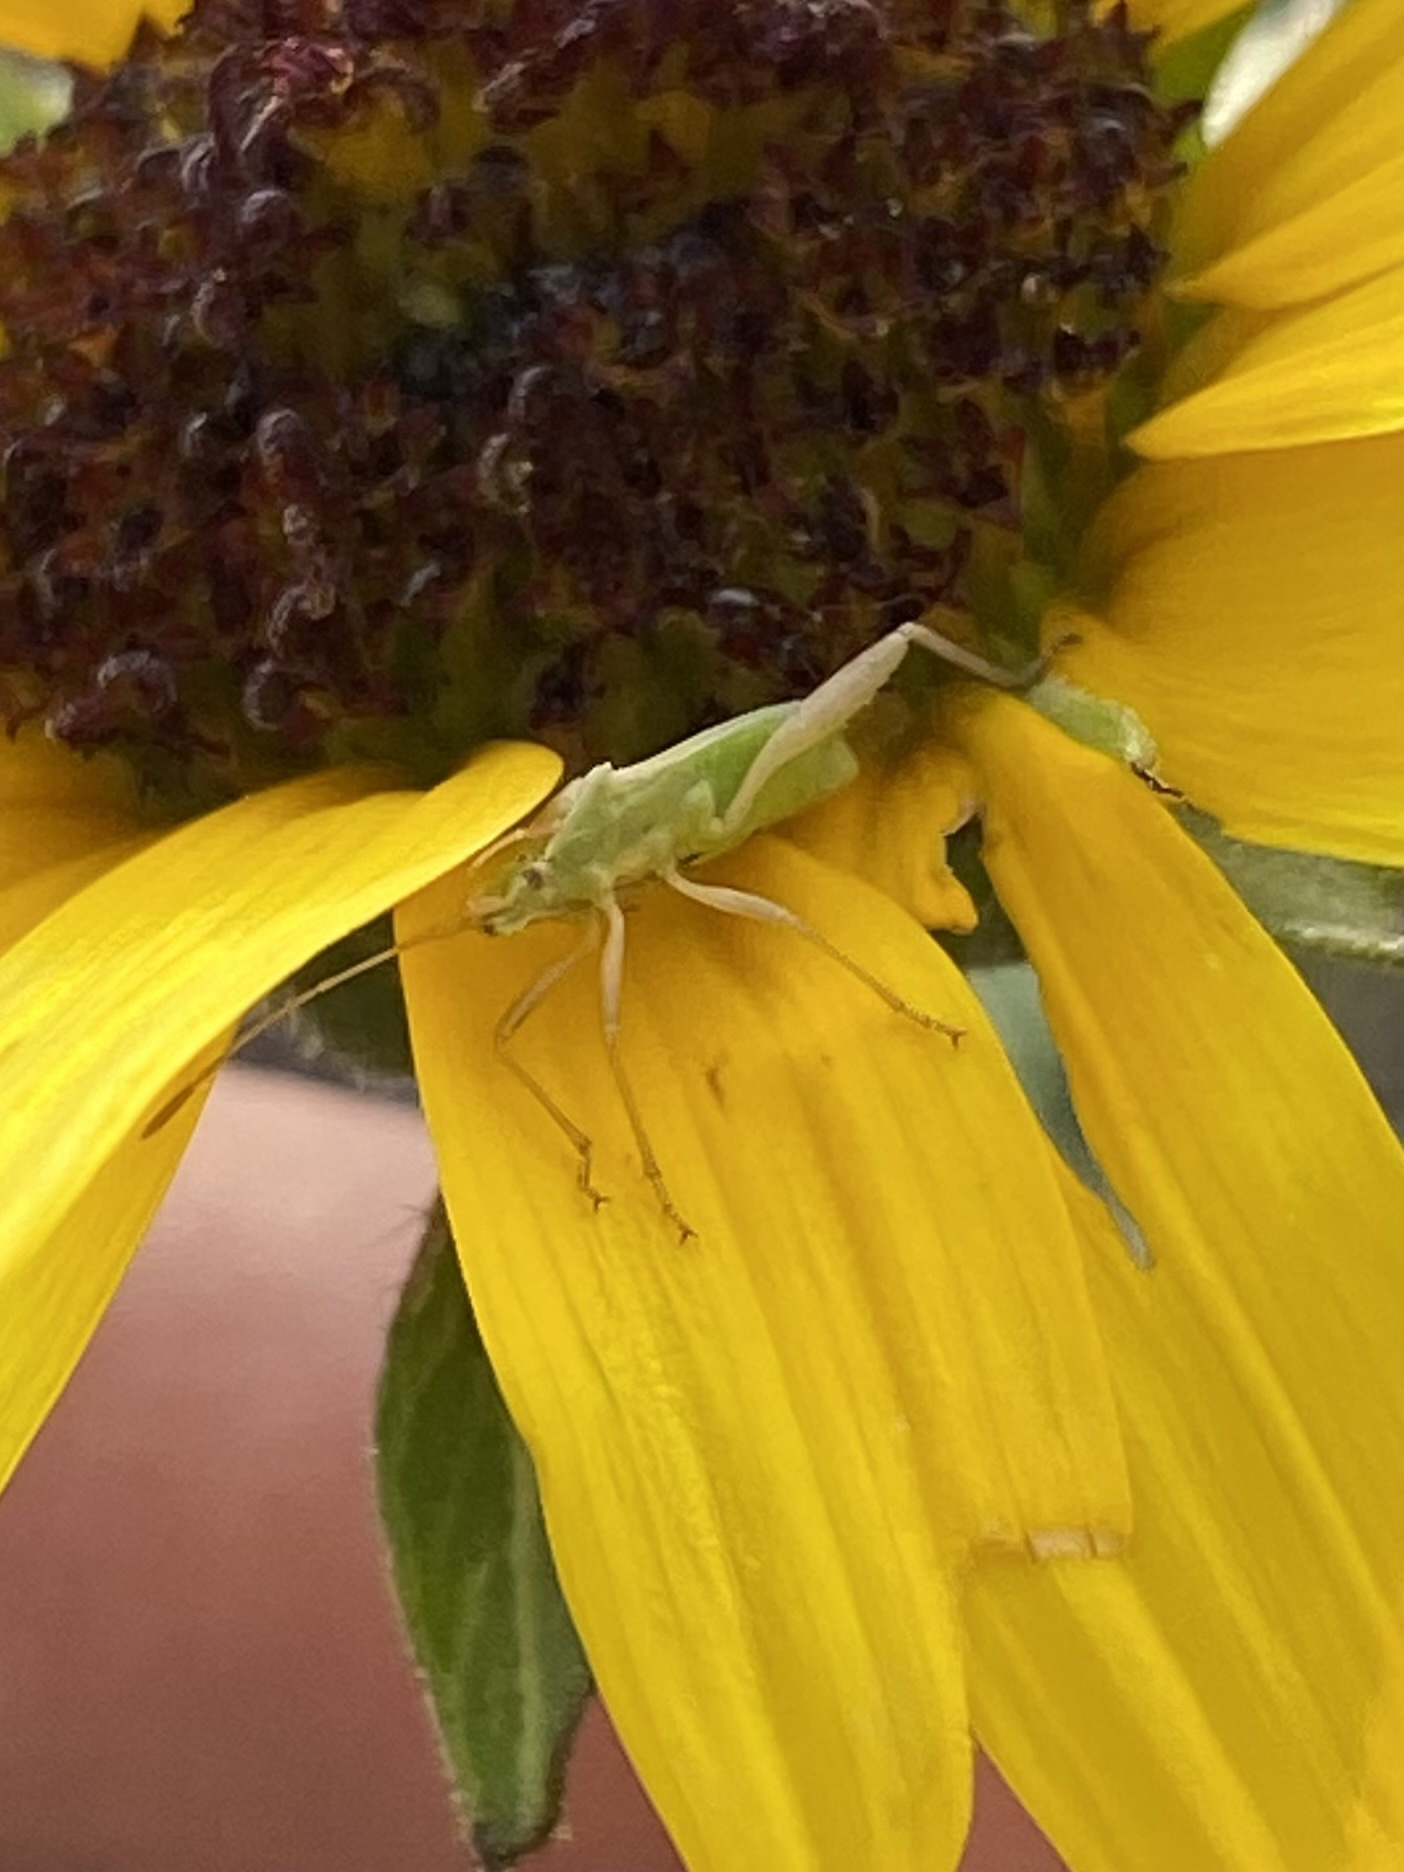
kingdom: Animalia
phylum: Arthropoda
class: Insecta
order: Hemiptera
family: Rhopalidae
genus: Harmostes
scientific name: Harmostes
